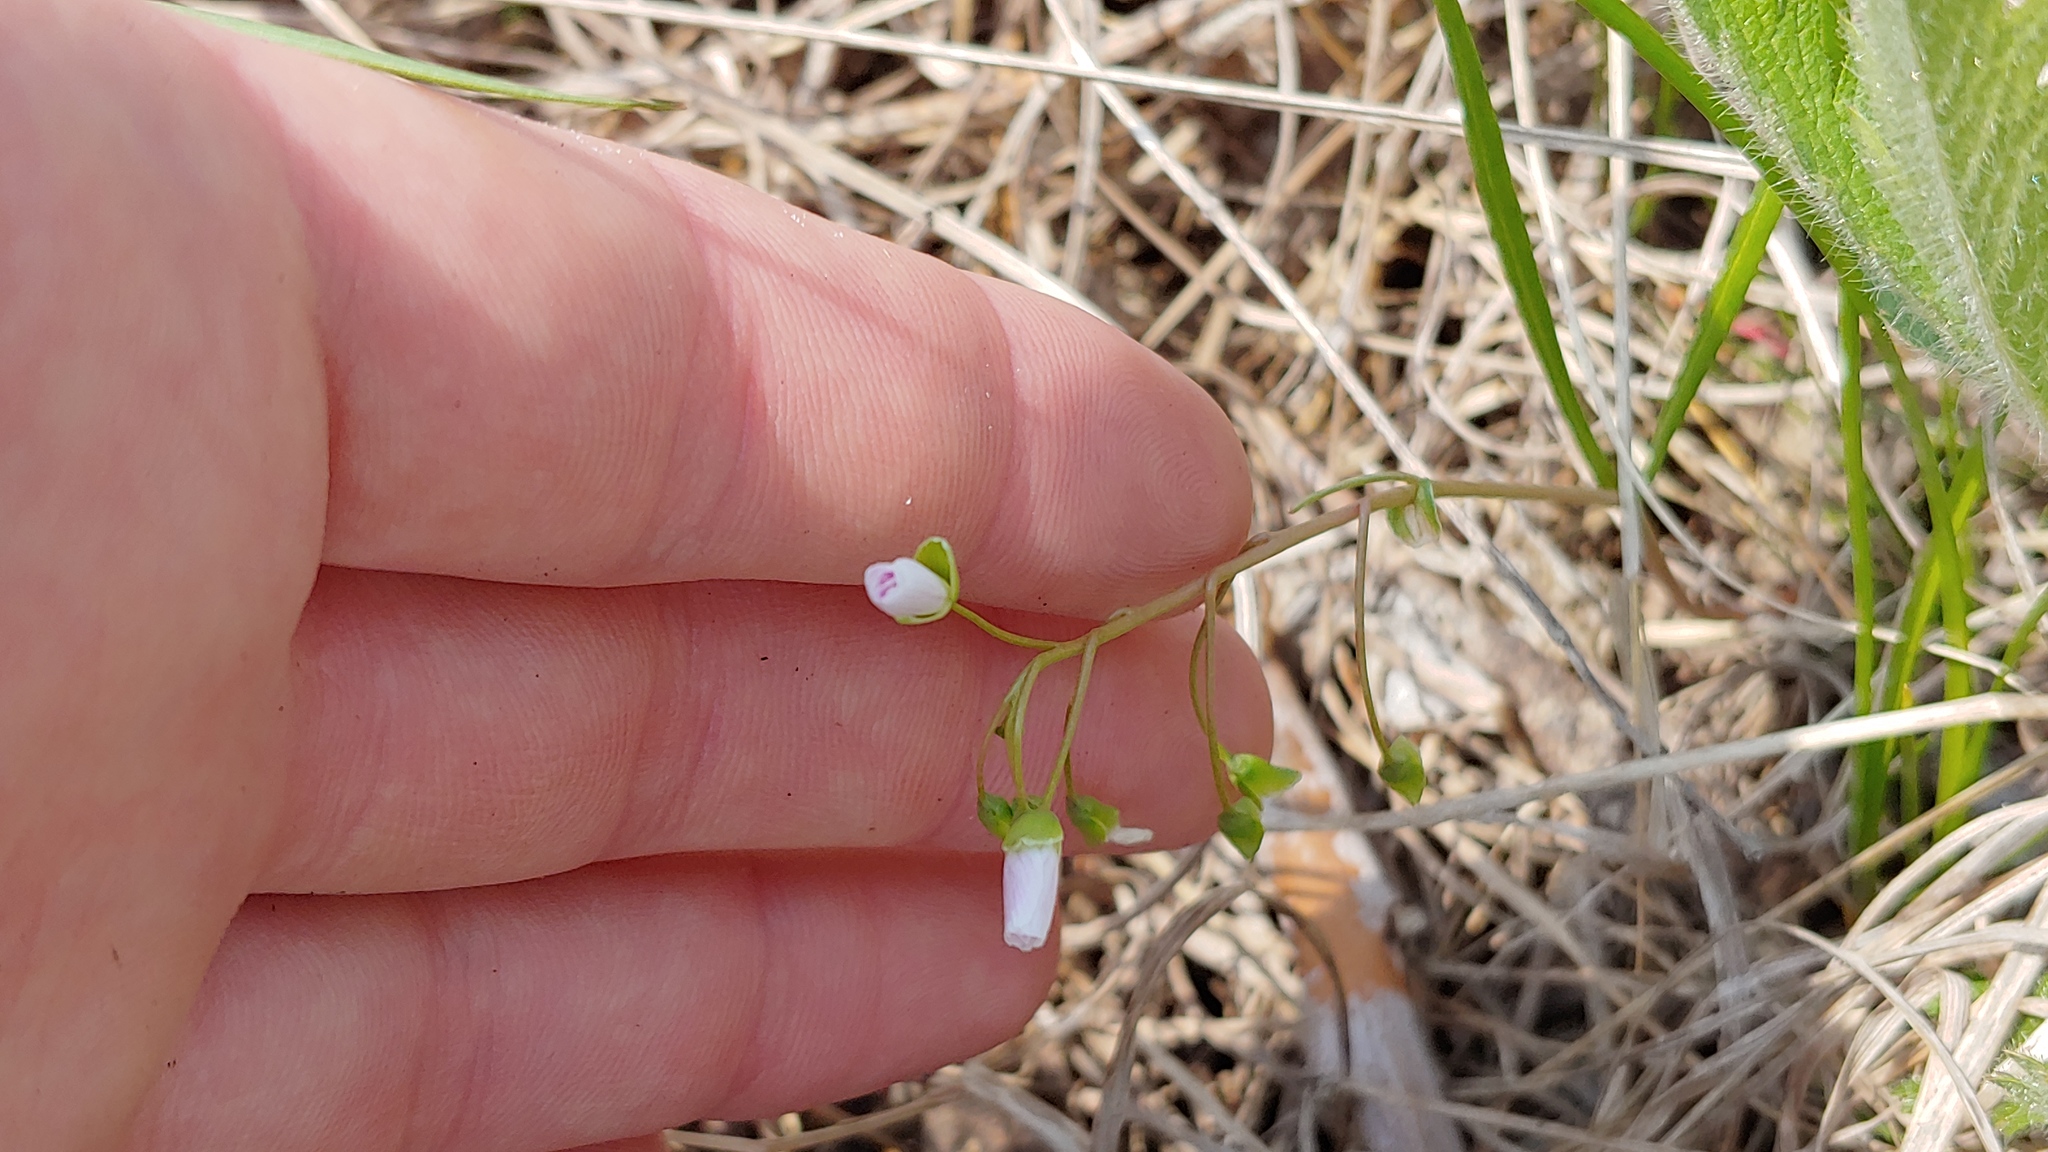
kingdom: Plantae
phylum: Tracheophyta
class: Magnoliopsida
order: Caryophyllales
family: Montiaceae
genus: Claytonia
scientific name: Claytonia virginica
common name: Virginia springbeauty
